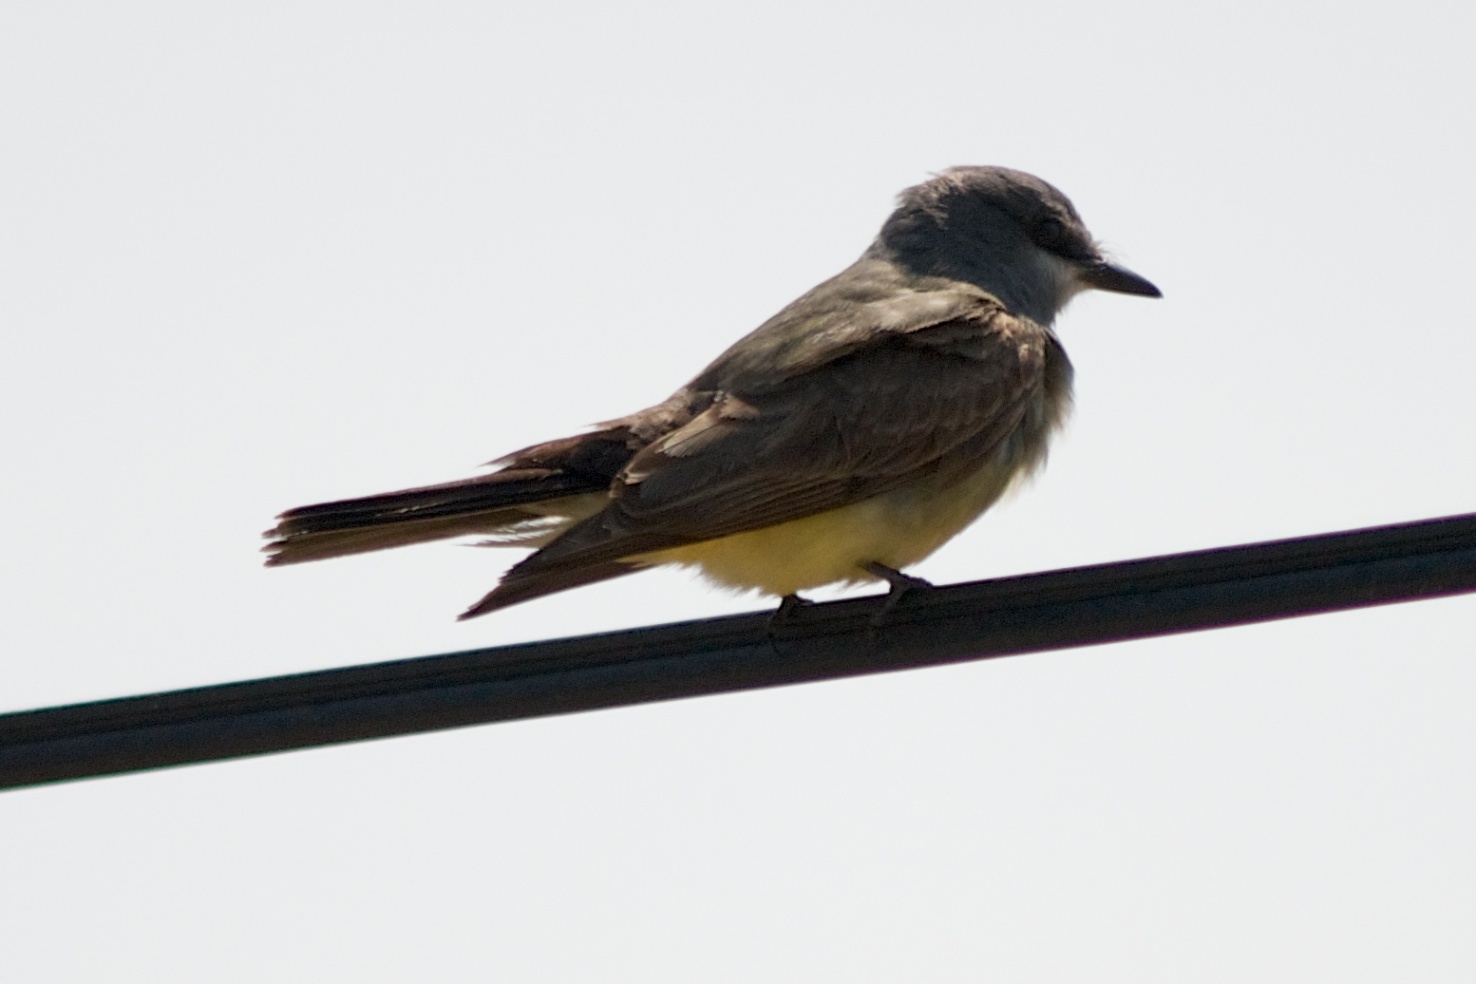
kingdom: Animalia
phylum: Chordata
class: Aves
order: Passeriformes
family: Tyrannidae
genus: Tyrannus
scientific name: Tyrannus vociferans
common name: Cassin's kingbird
